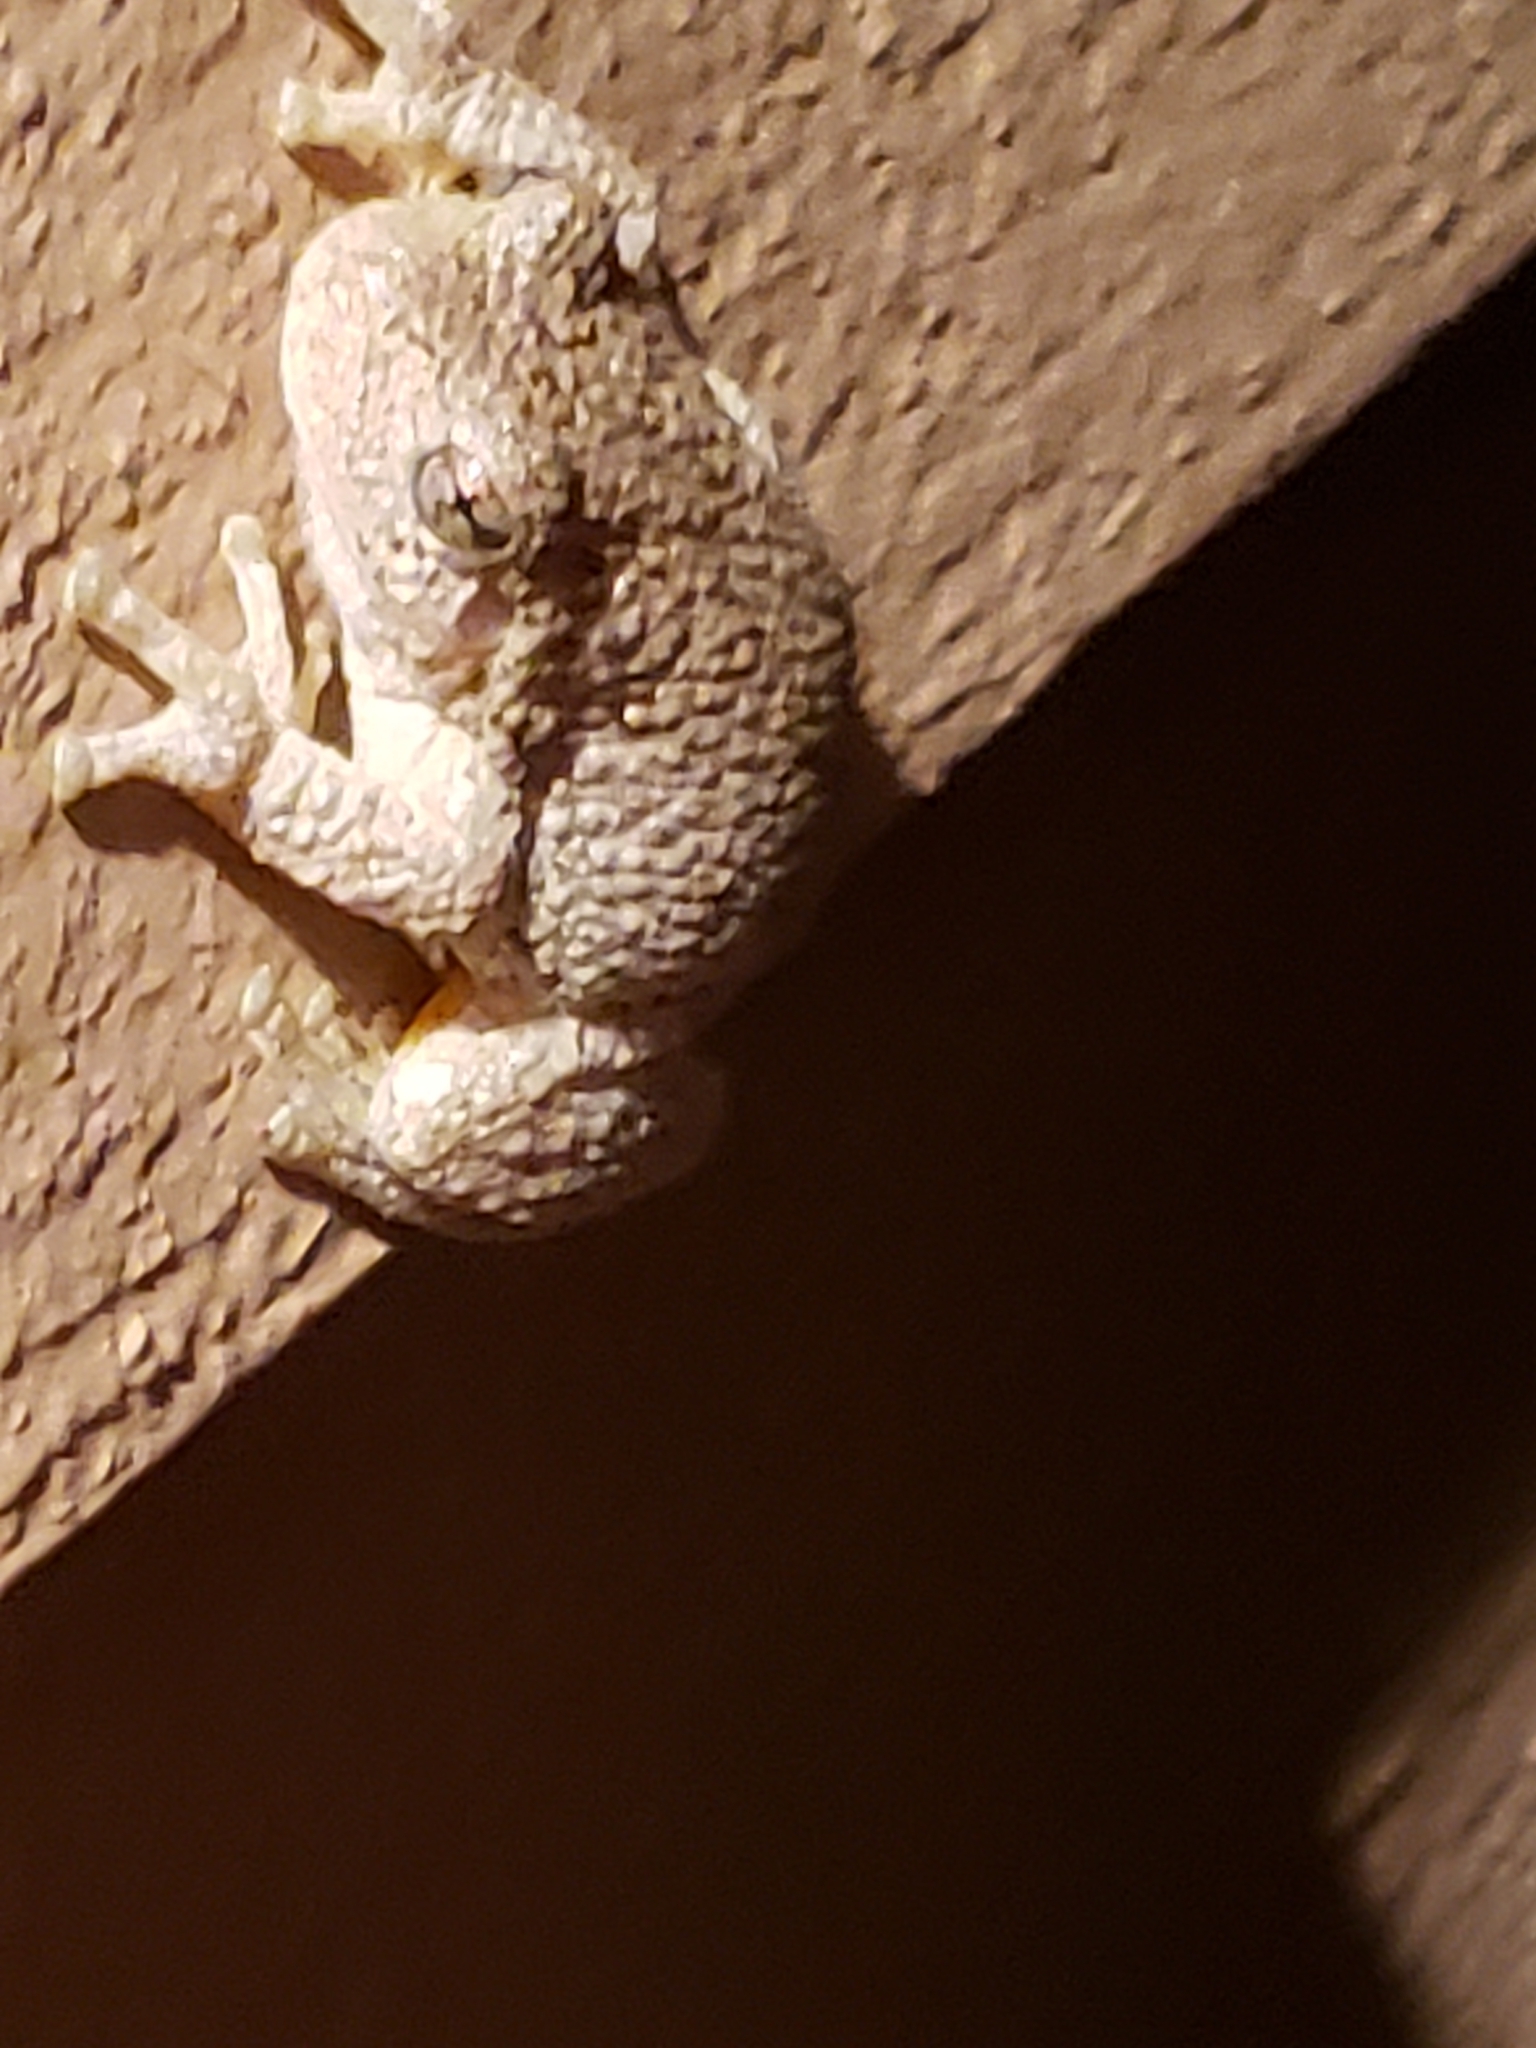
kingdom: Animalia
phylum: Chordata
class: Amphibia
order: Anura
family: Hylidae
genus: Hyla
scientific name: Hyla
